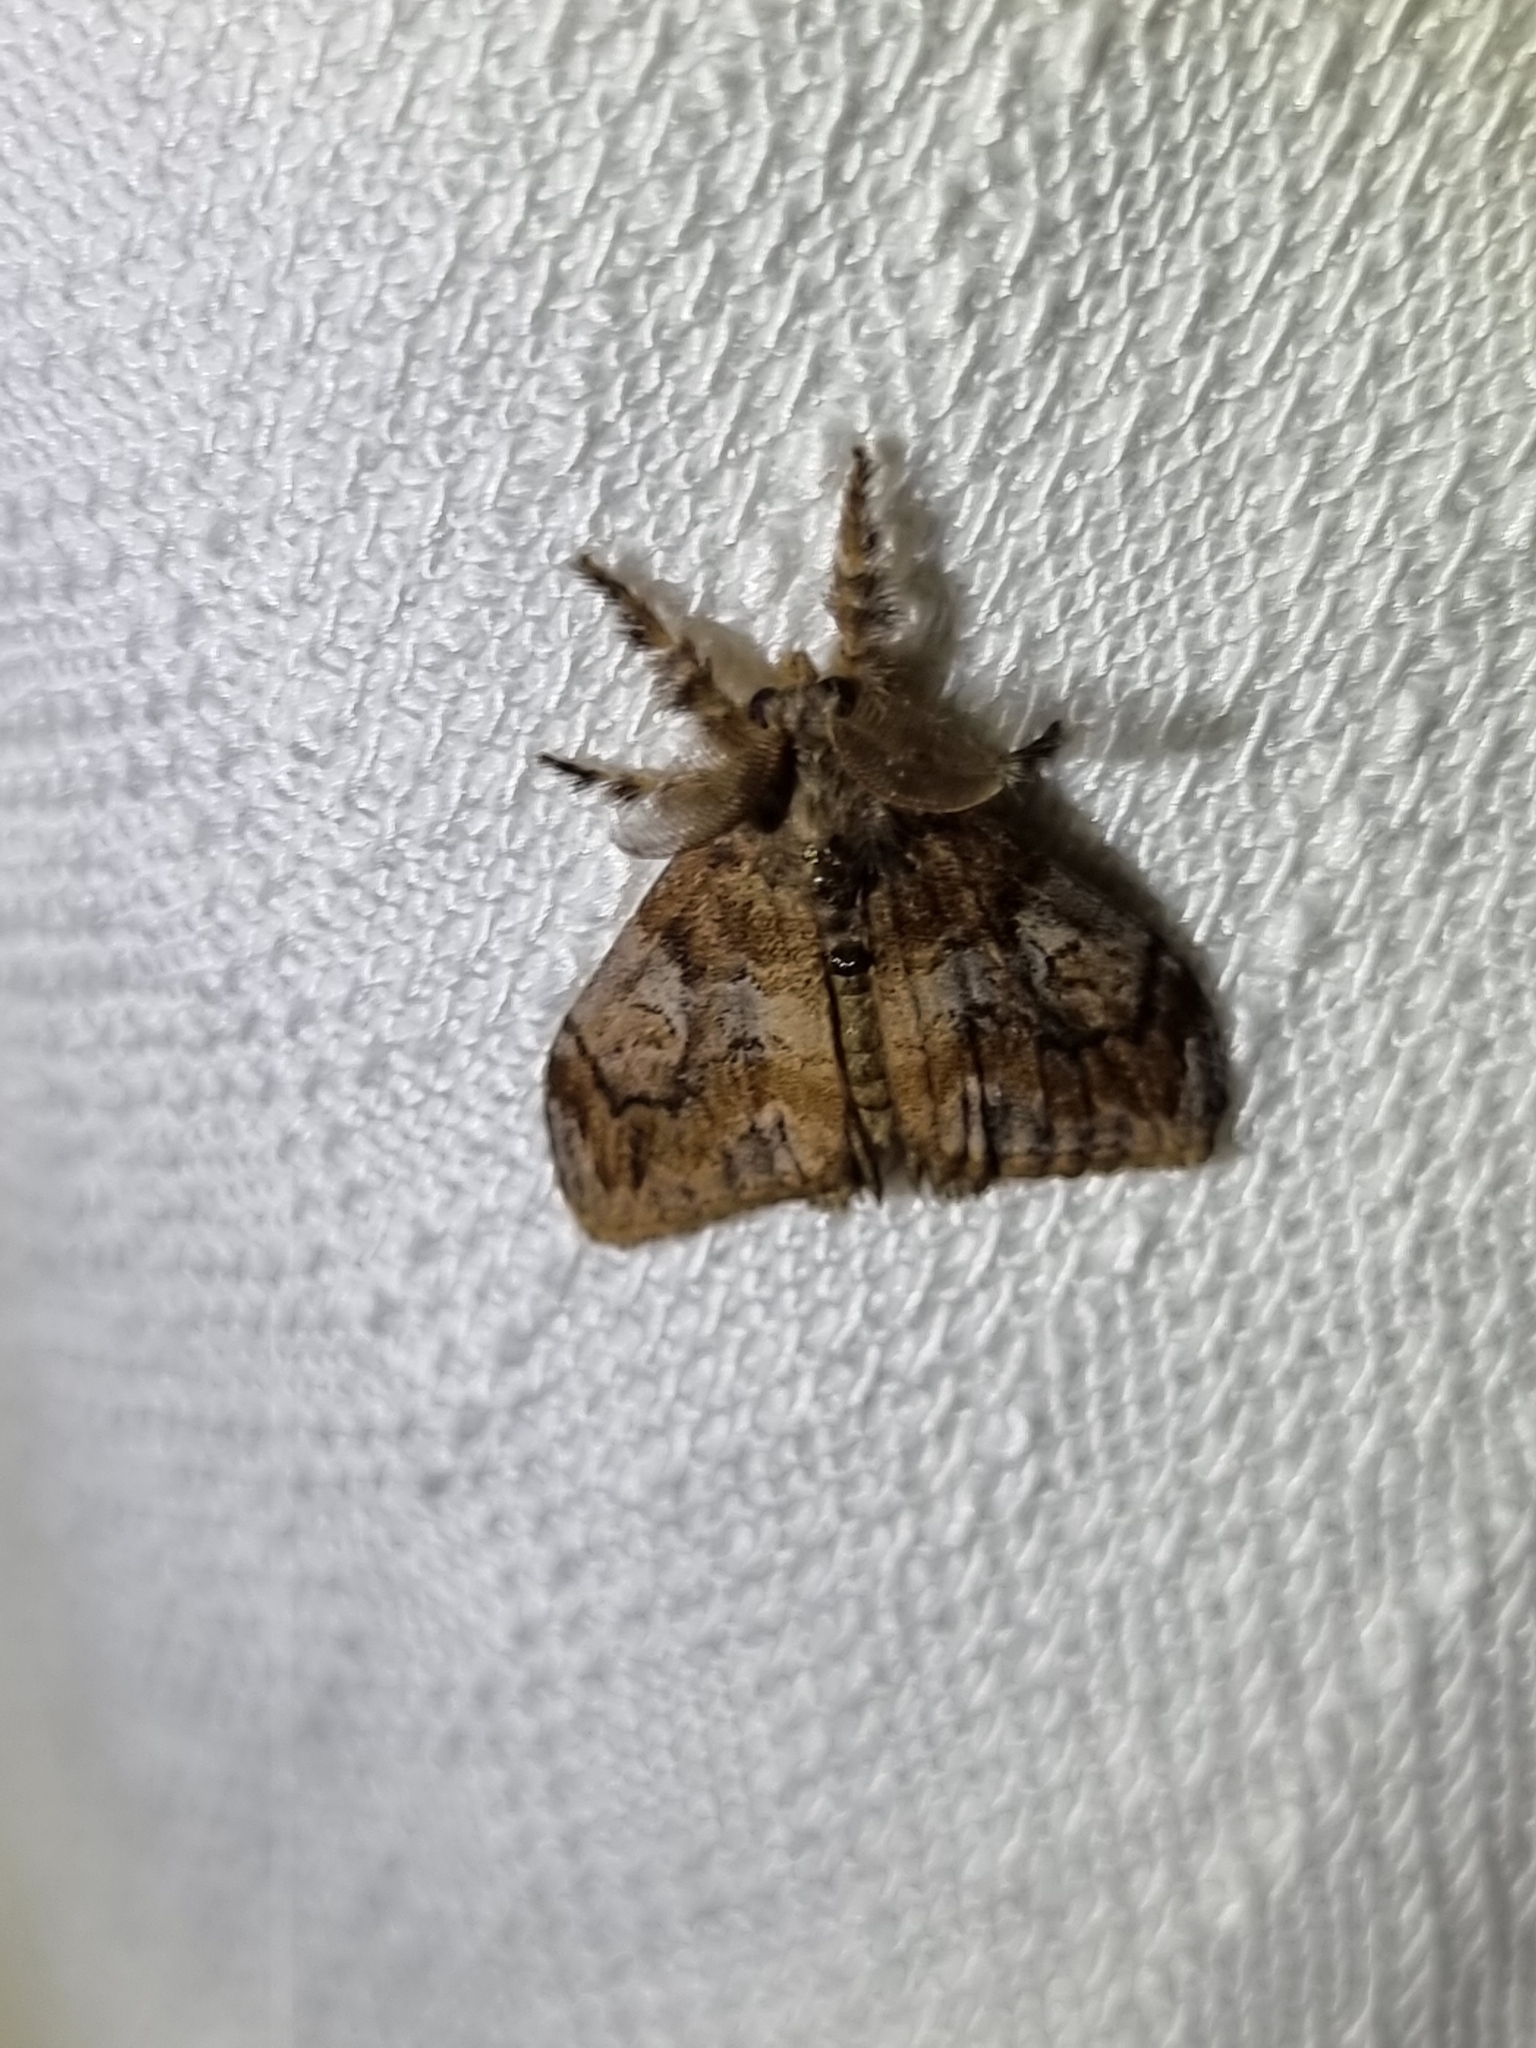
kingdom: Animalia
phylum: Arthropoda
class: Insecta
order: Lepidoptera
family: Erebidae
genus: Orgyia
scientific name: Orgyia australis
